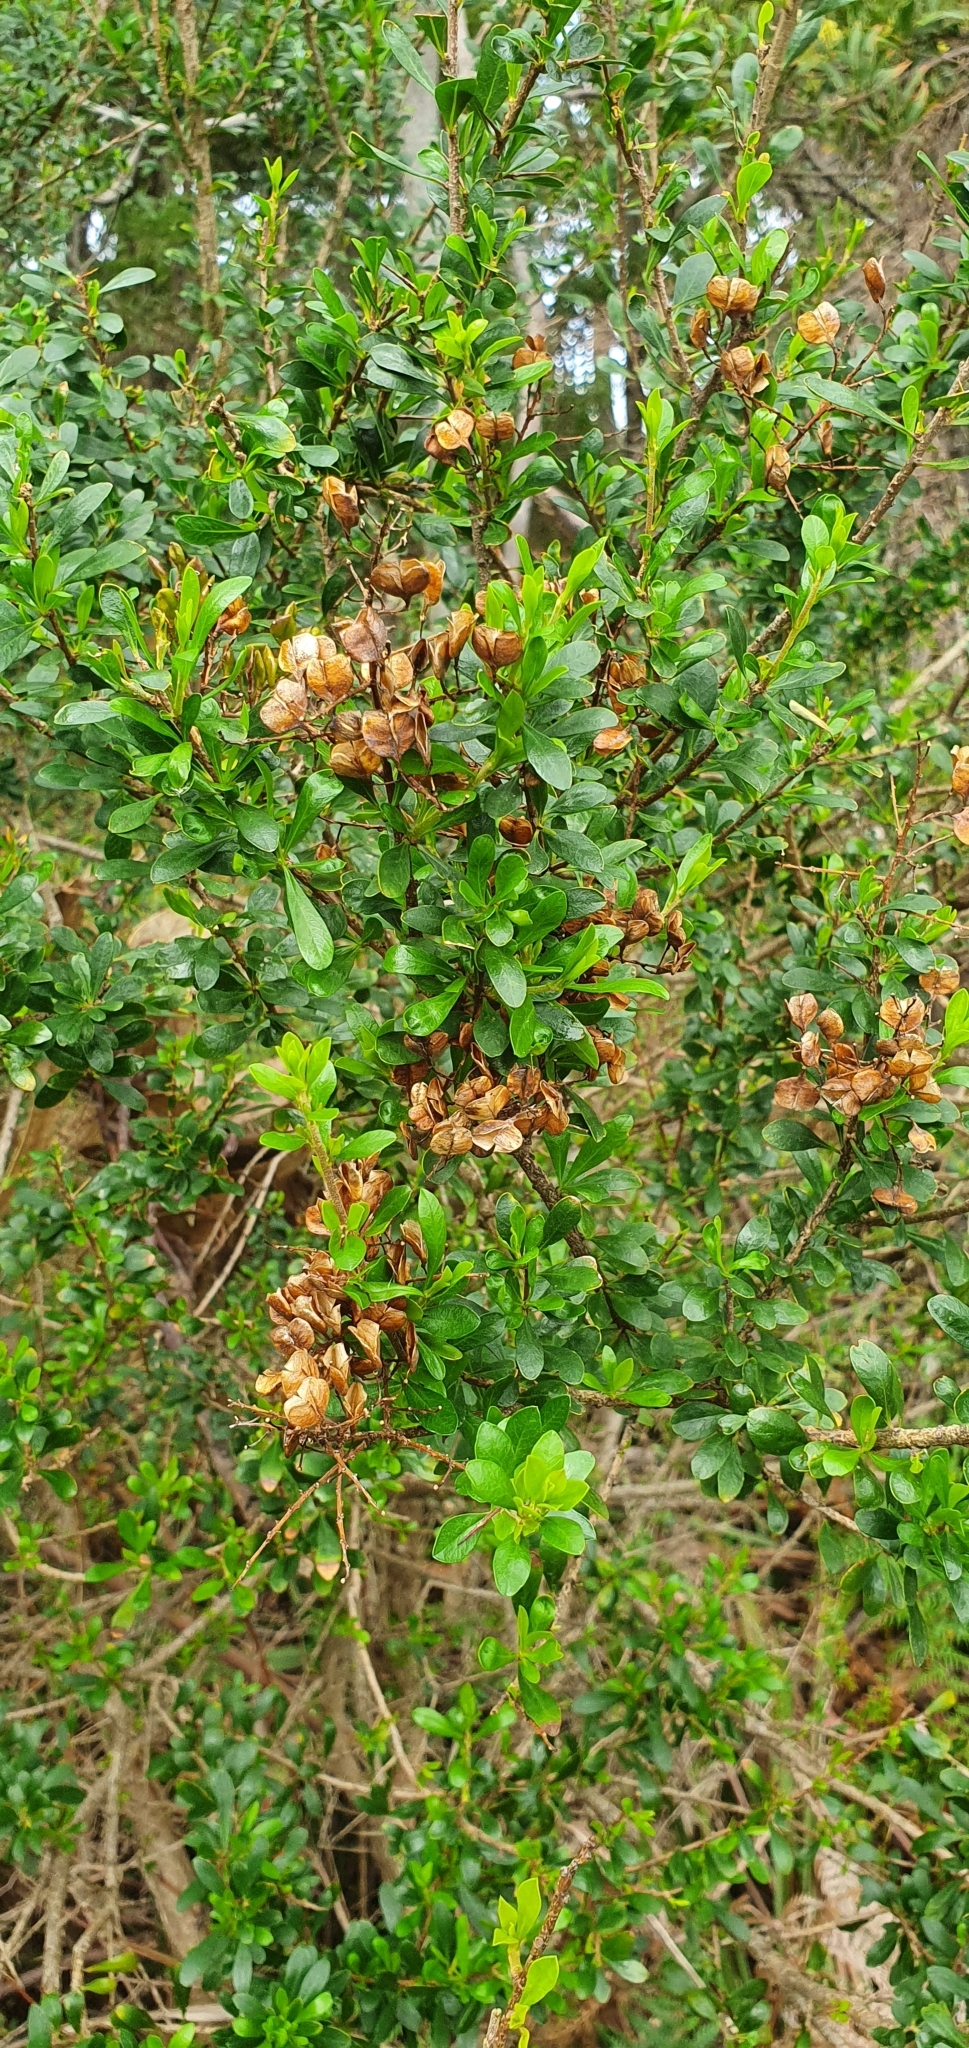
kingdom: Plantae
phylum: Tracheophyta
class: Magnoliopsida
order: Apiales
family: Pittosporaceae
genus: Bursaria
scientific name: Bursaria spinosa
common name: Australian blackthorn
